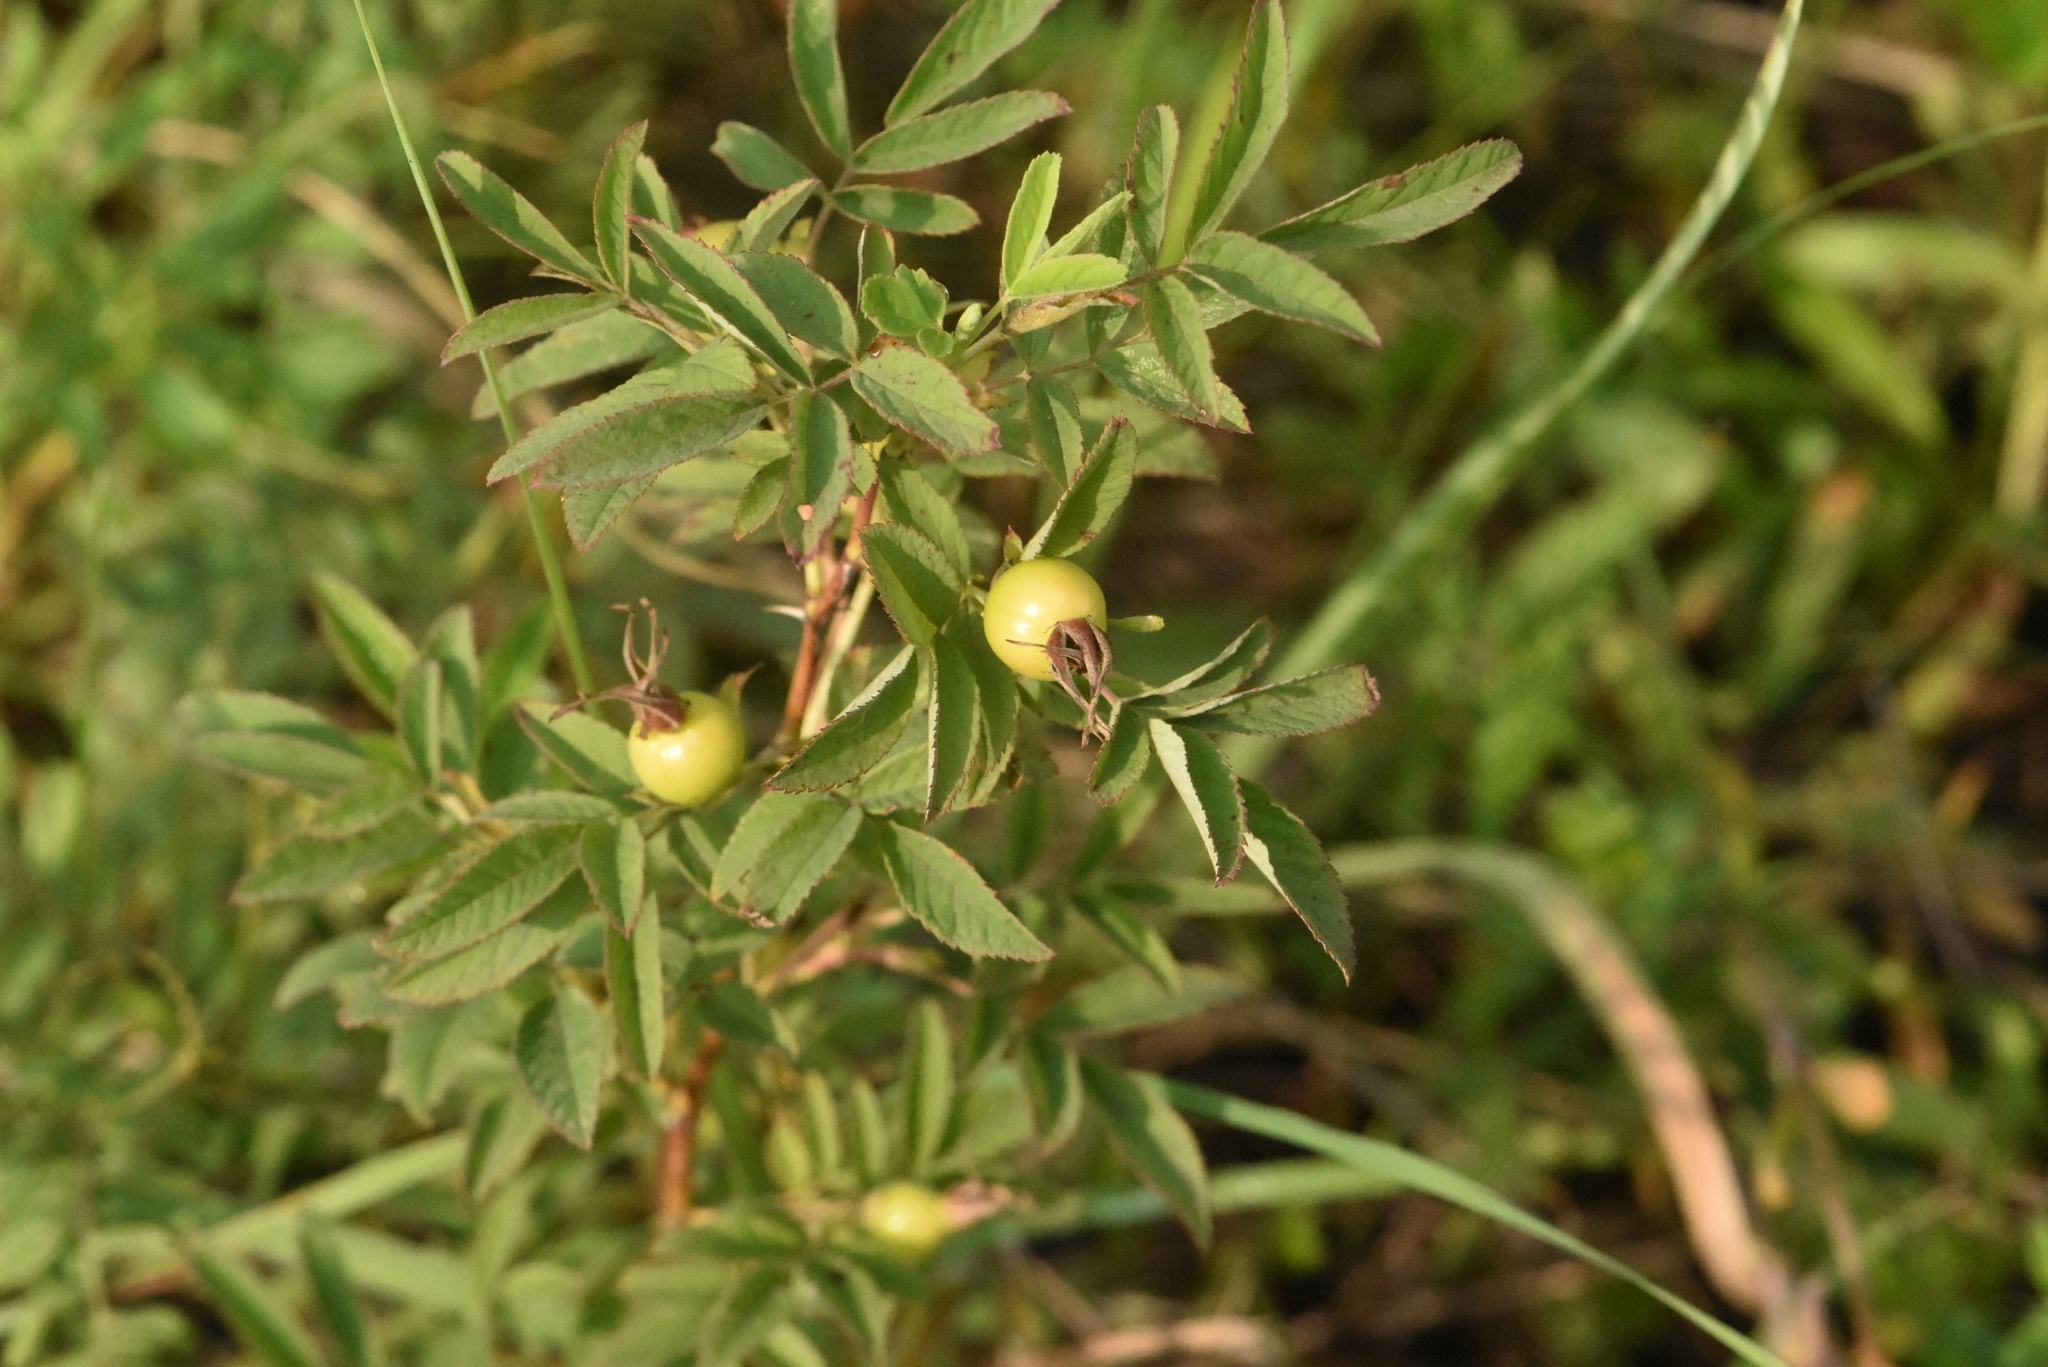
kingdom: Plantae
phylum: Tracheophyta
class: Magnoliopsida
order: Rosales
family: Rosaceae
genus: Rosa
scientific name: Rosa majalis
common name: Cinnamon rose
